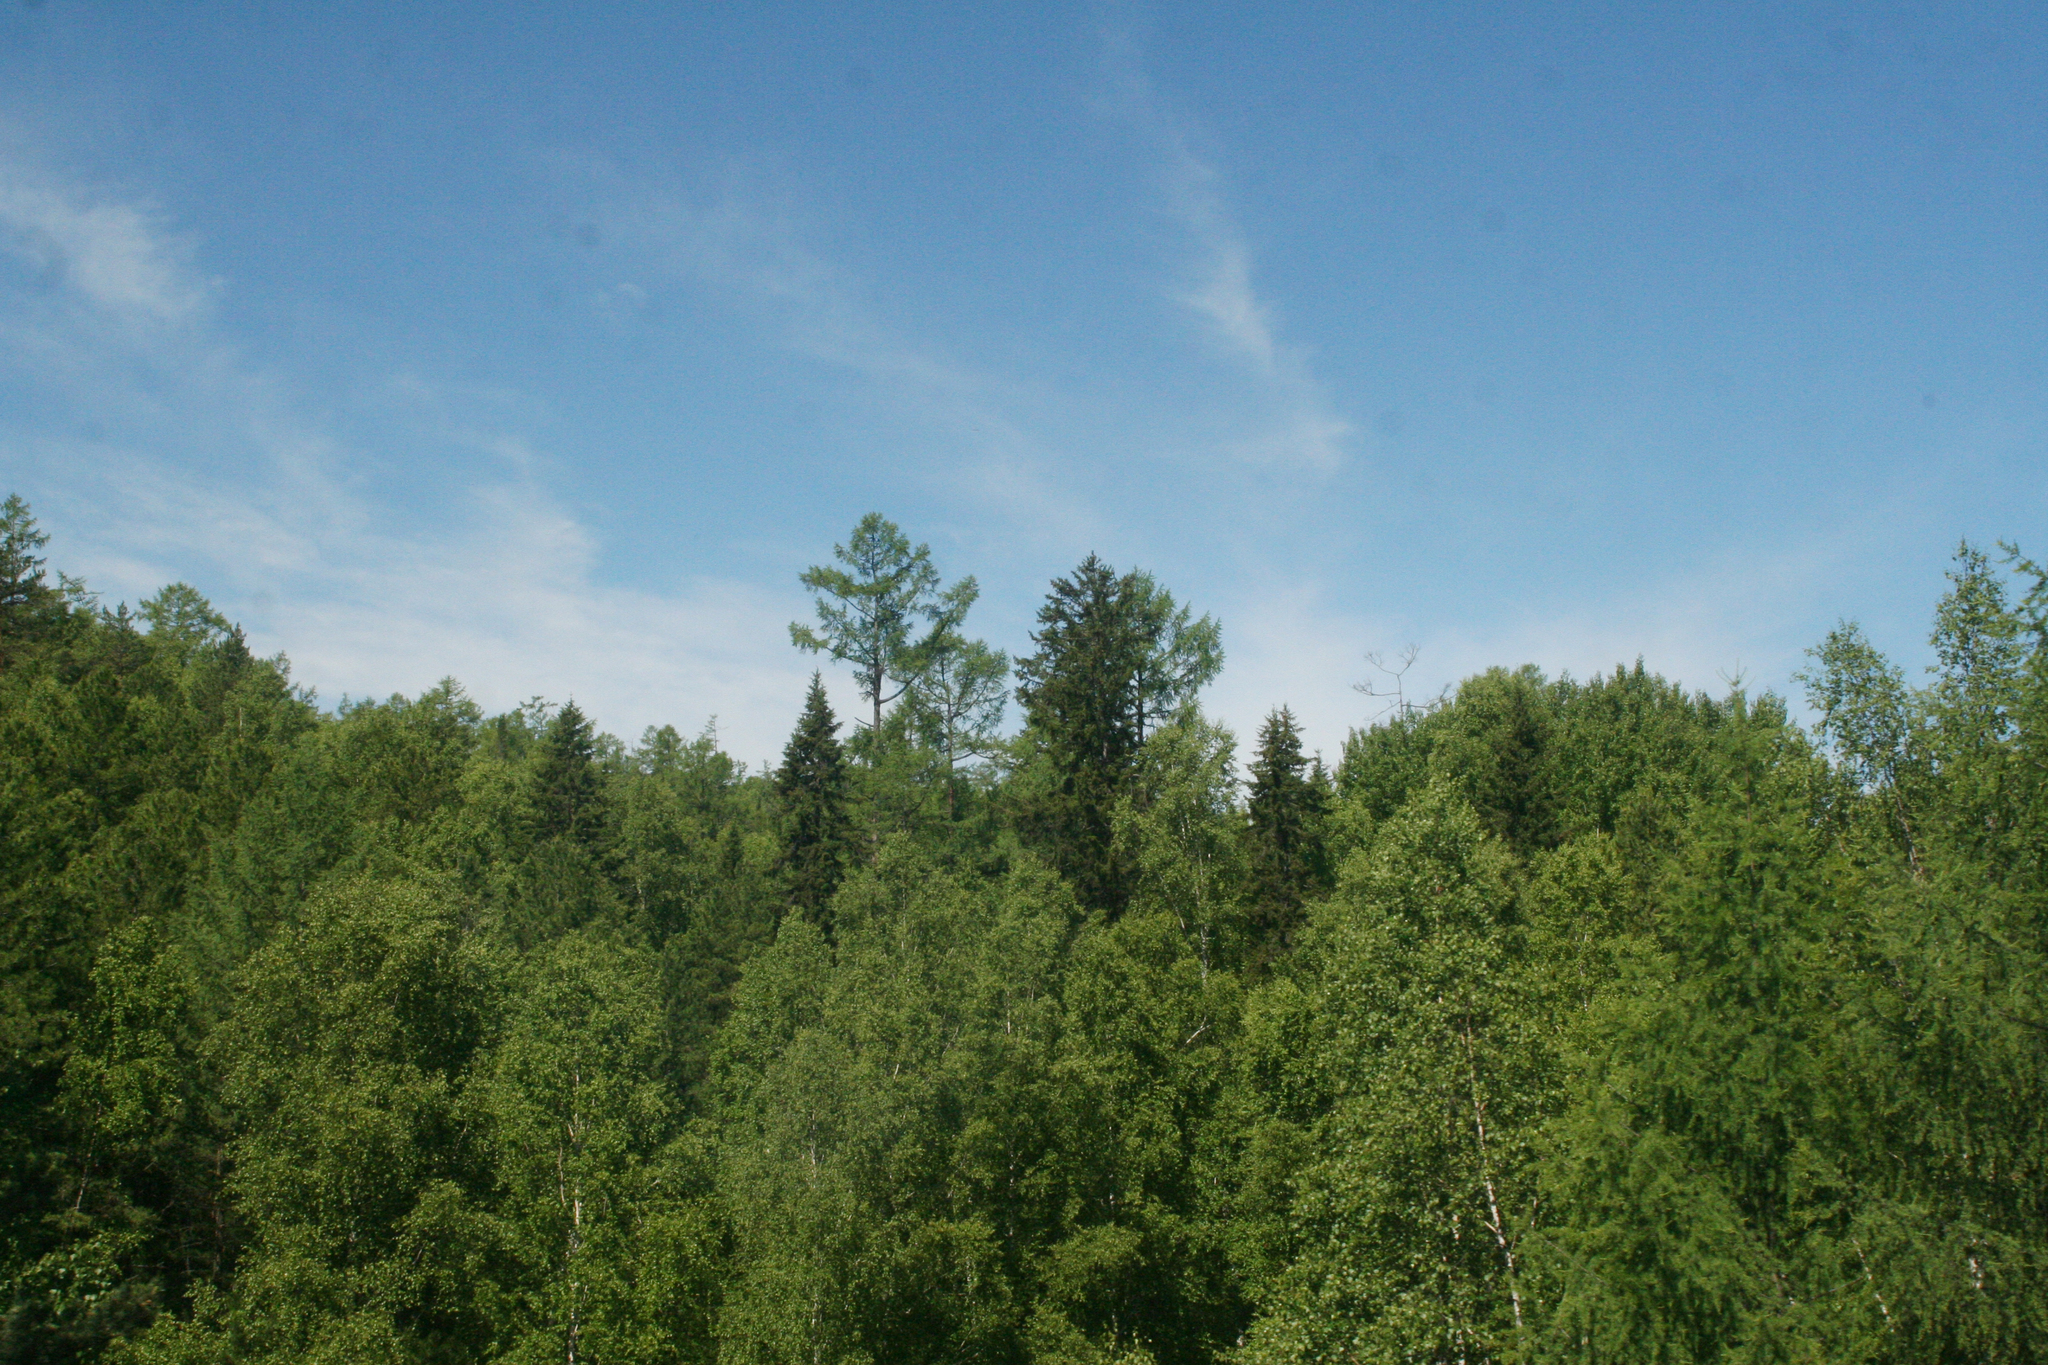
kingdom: Plantae
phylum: Tracheophyta
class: Pinopsida
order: Pinales
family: Pinaceae
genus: Larix
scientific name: Larix sibirica
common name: Siberian larch
